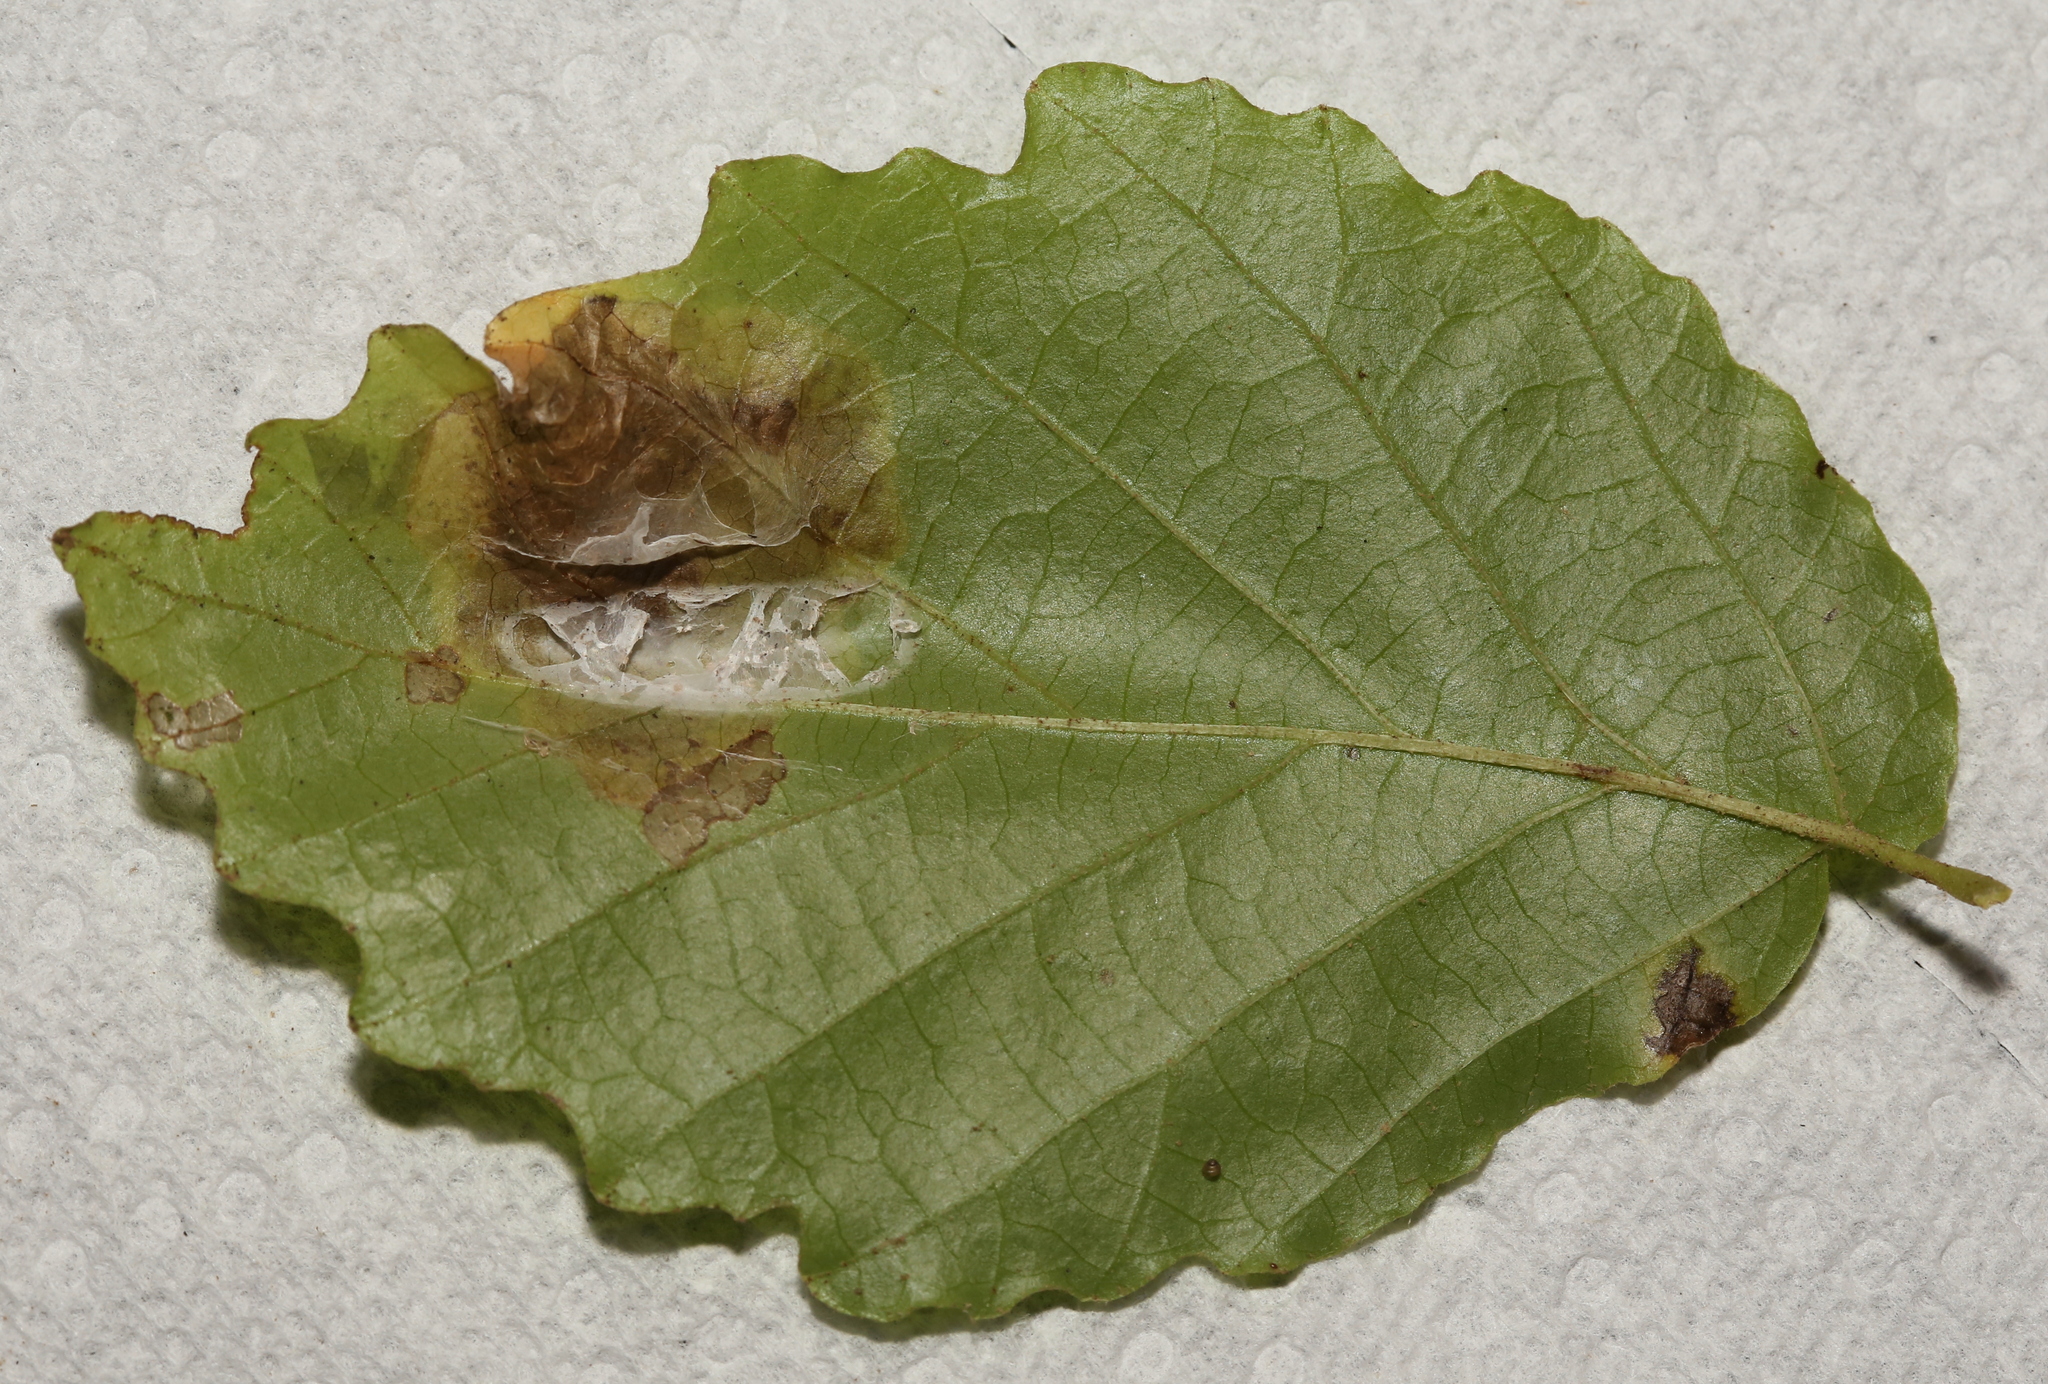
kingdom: Animalia
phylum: Arthropoda
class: Insecta
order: Lepidoptera
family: Gracillariidae
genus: Cameraria
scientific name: Cameraria hamameliella
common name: Witchhazel leafminer
